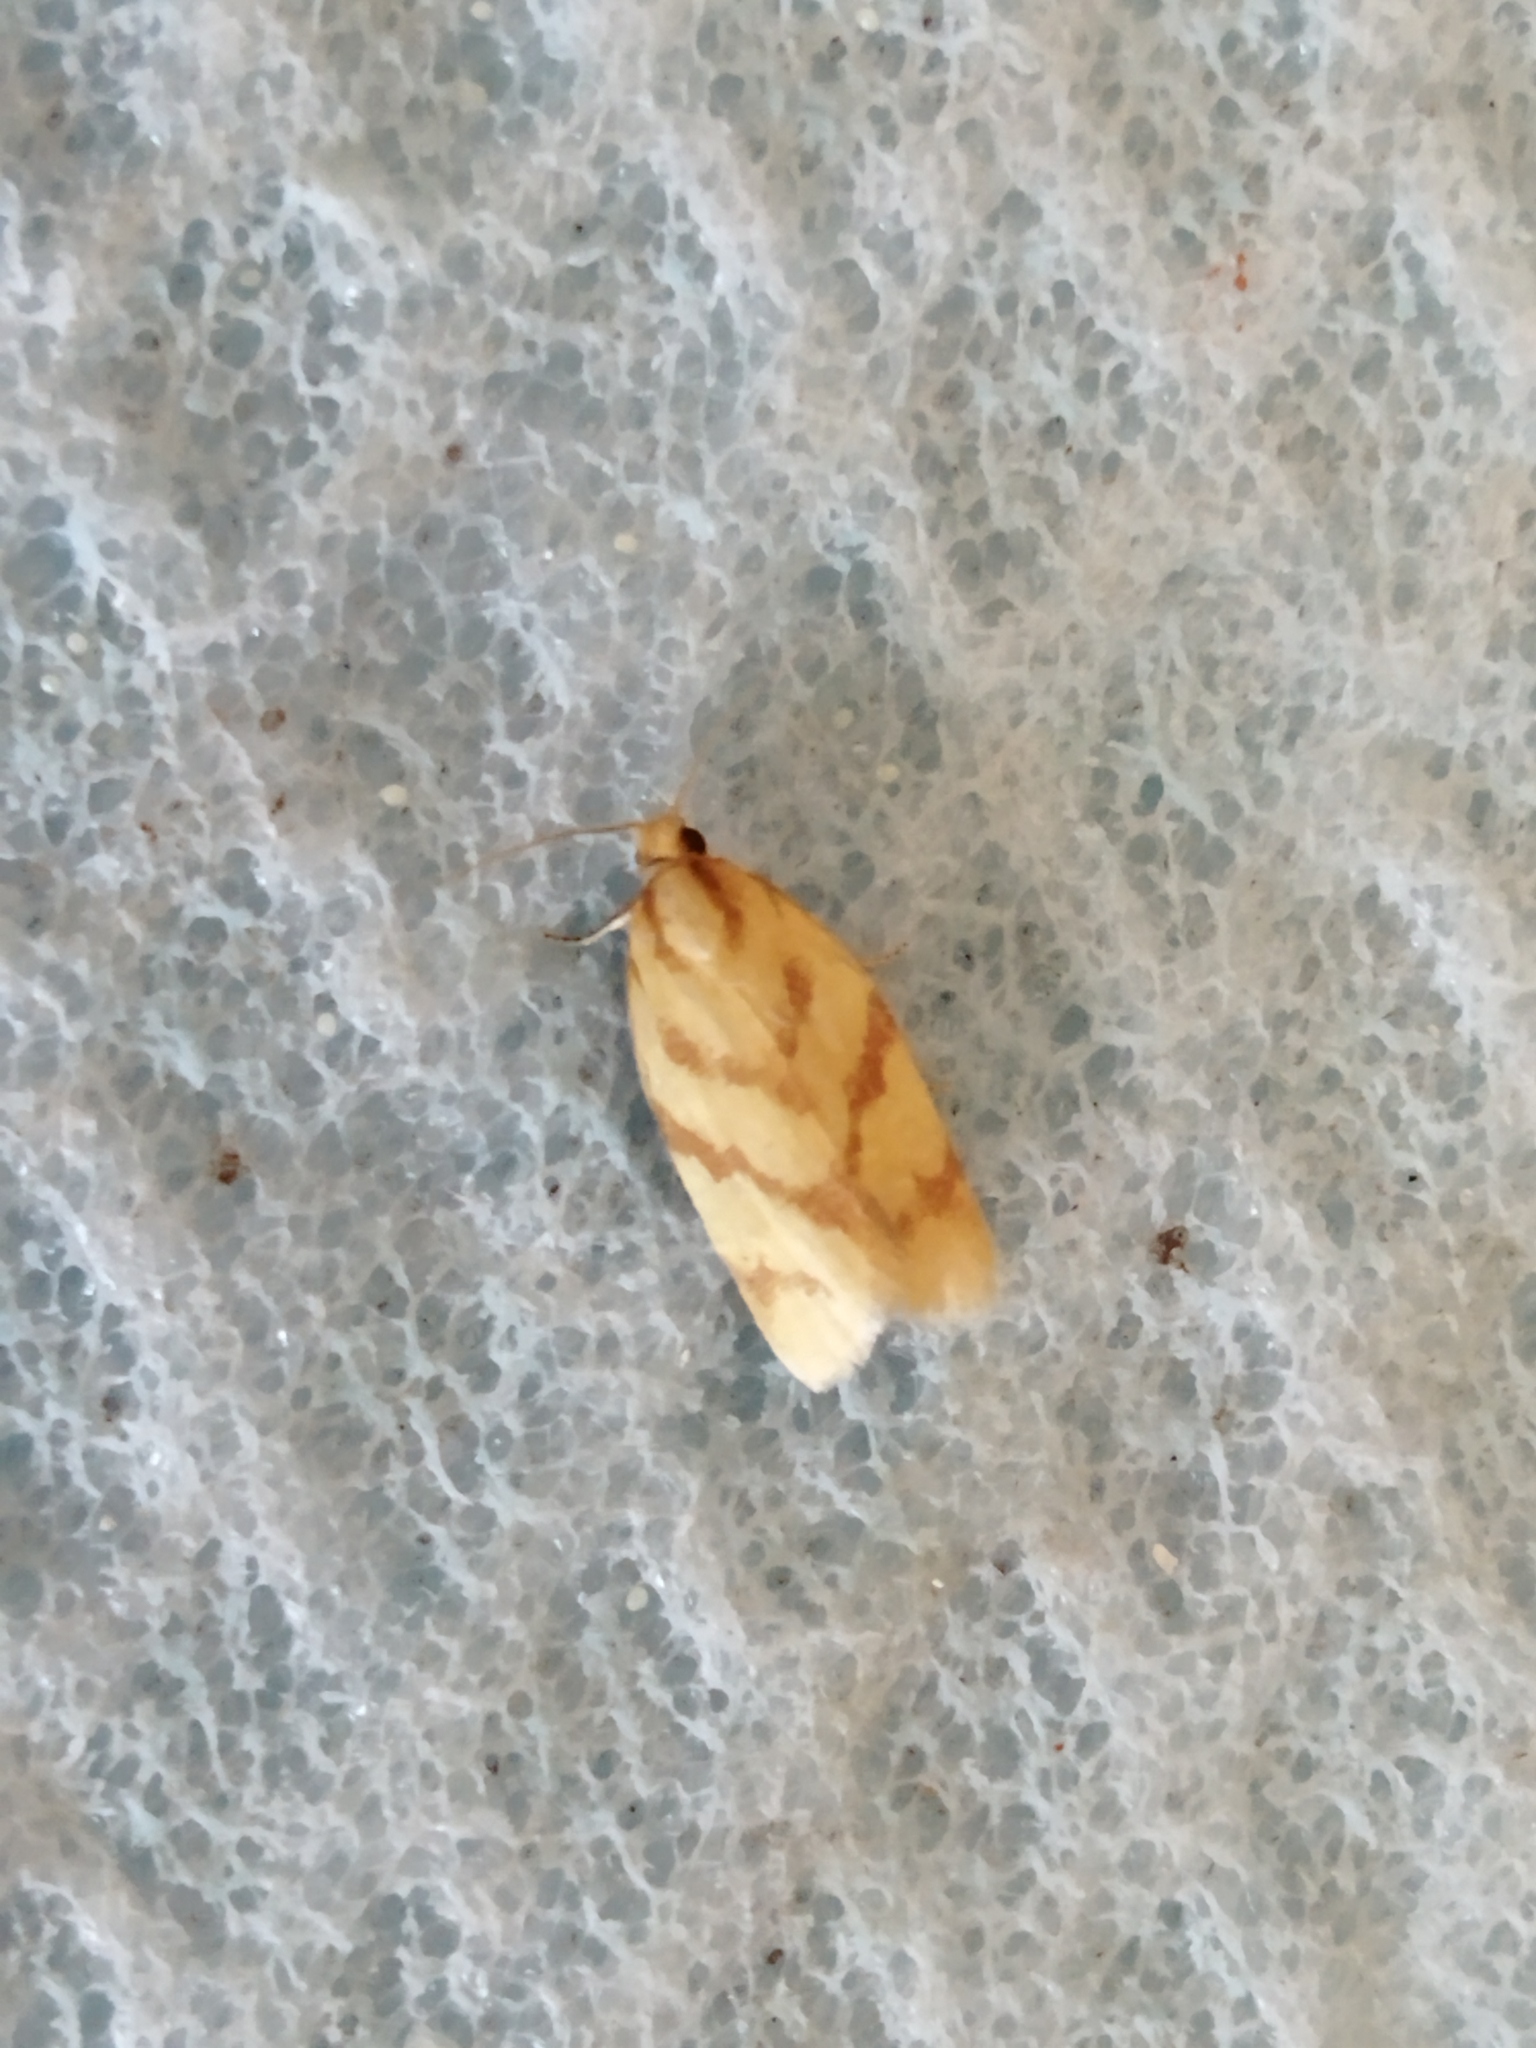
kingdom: Animalia
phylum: Arthropoda
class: Insecta
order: Lepidoptera
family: Tortricidae
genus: Clepsis
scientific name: Clepsis pallidana
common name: Sheep's-bit conch
